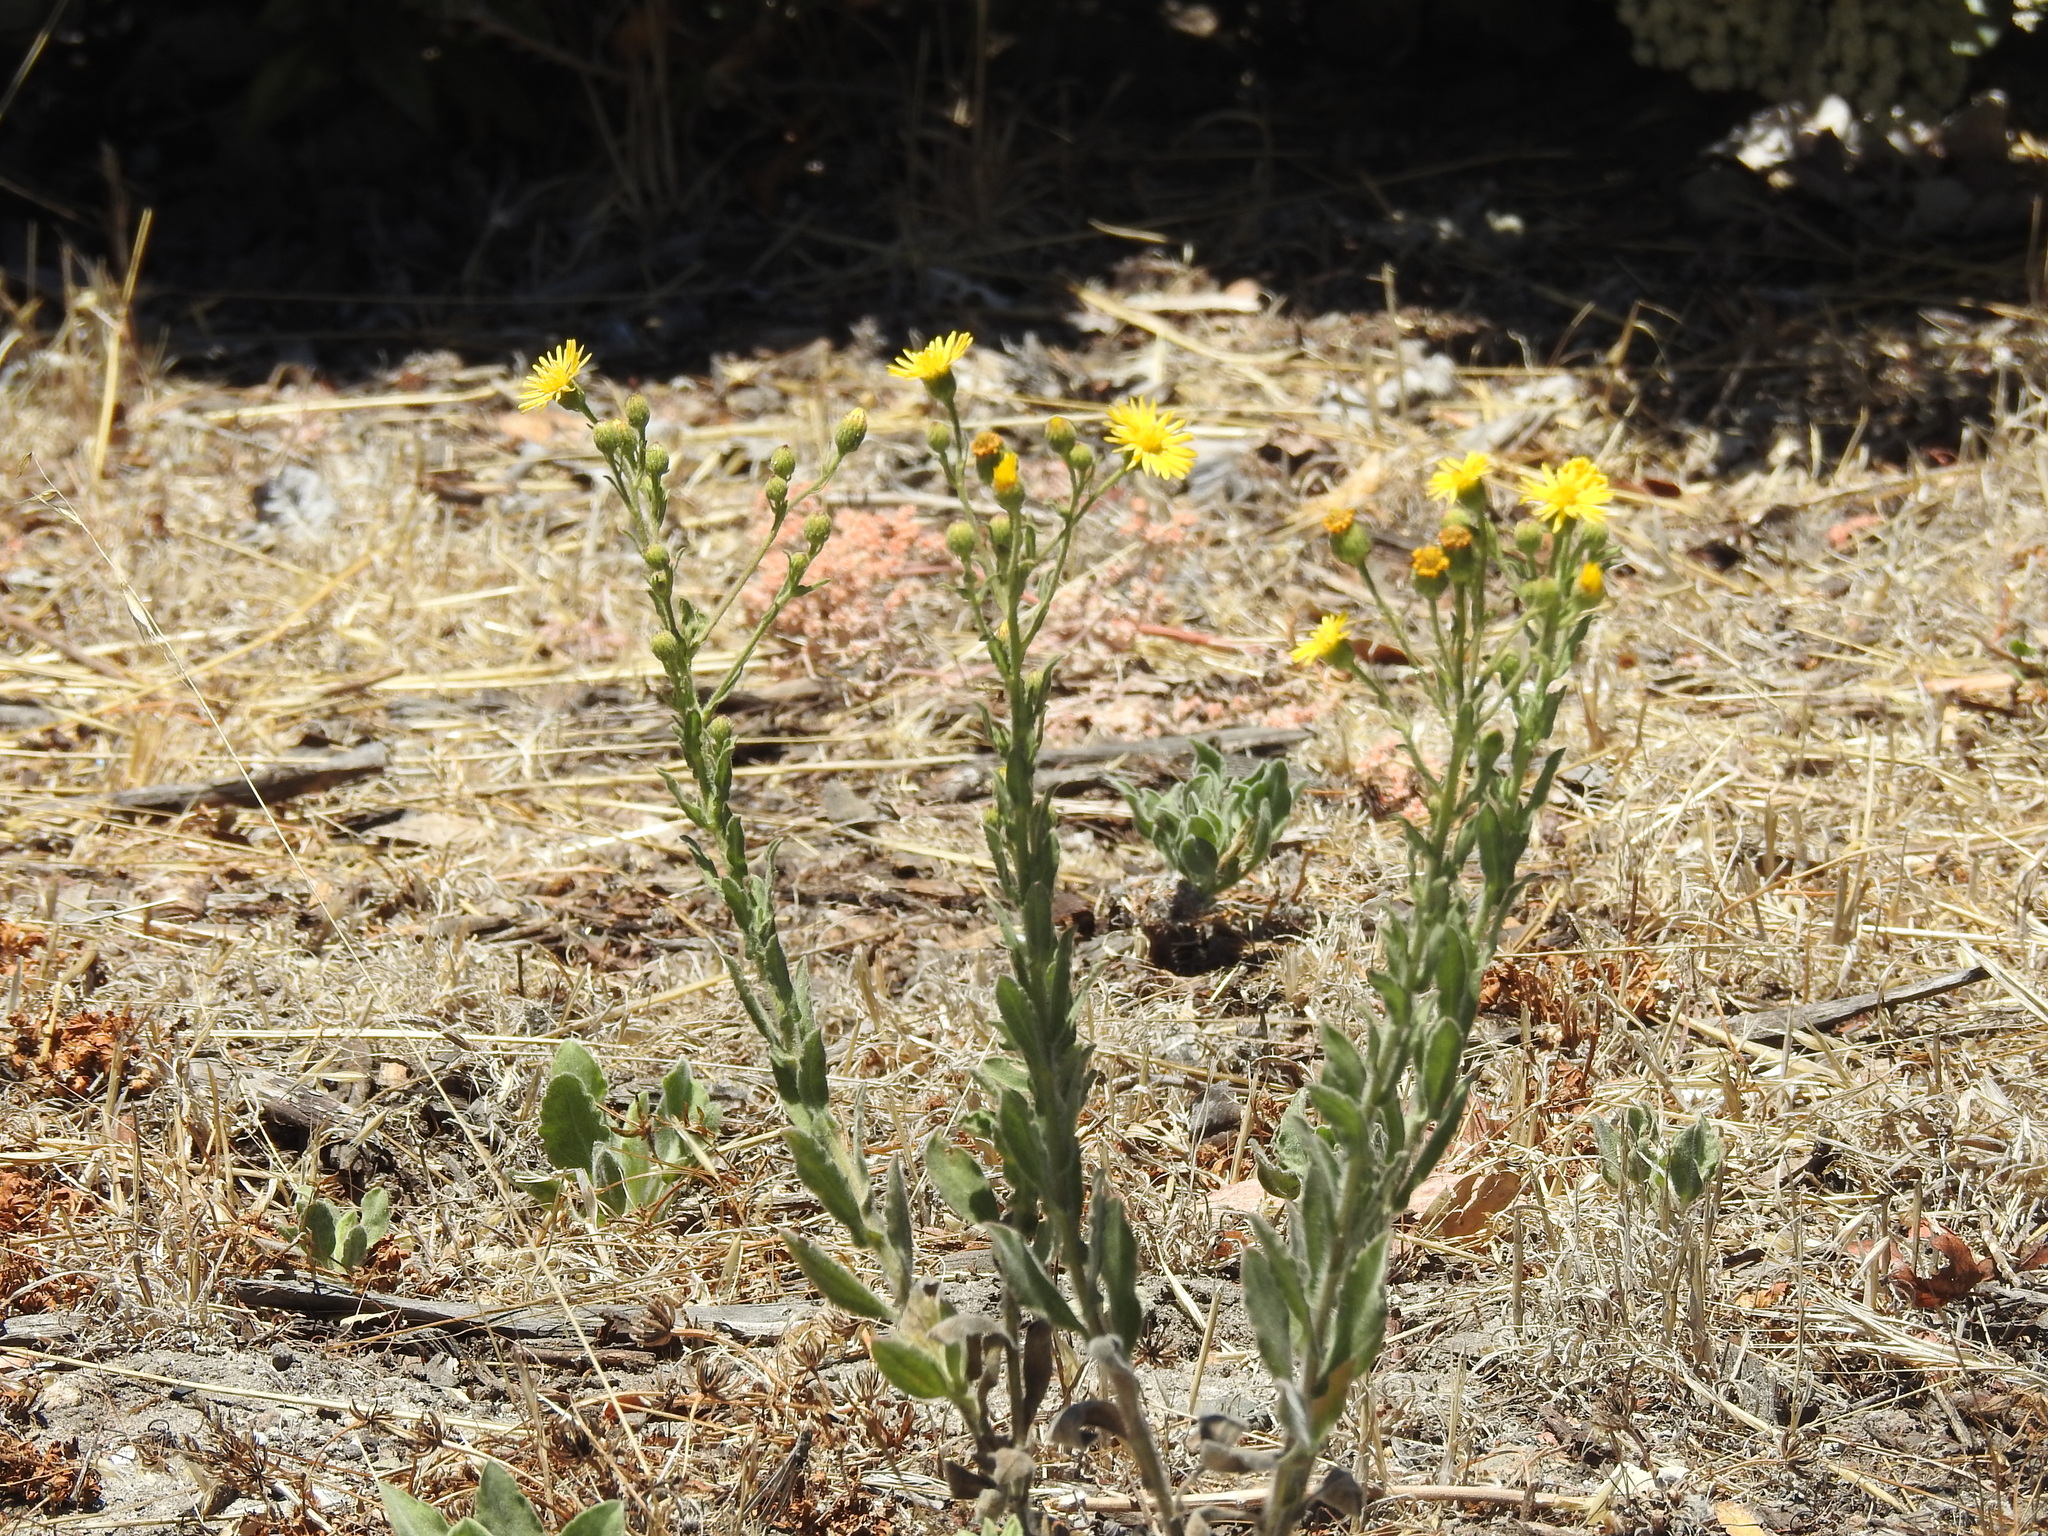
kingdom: Plantae
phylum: Tracheophyta
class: Magnoliopsida
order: Asterales
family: Asteraceae
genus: Heterotheca
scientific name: Heterotheca grandiflora
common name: Telegraphweed
